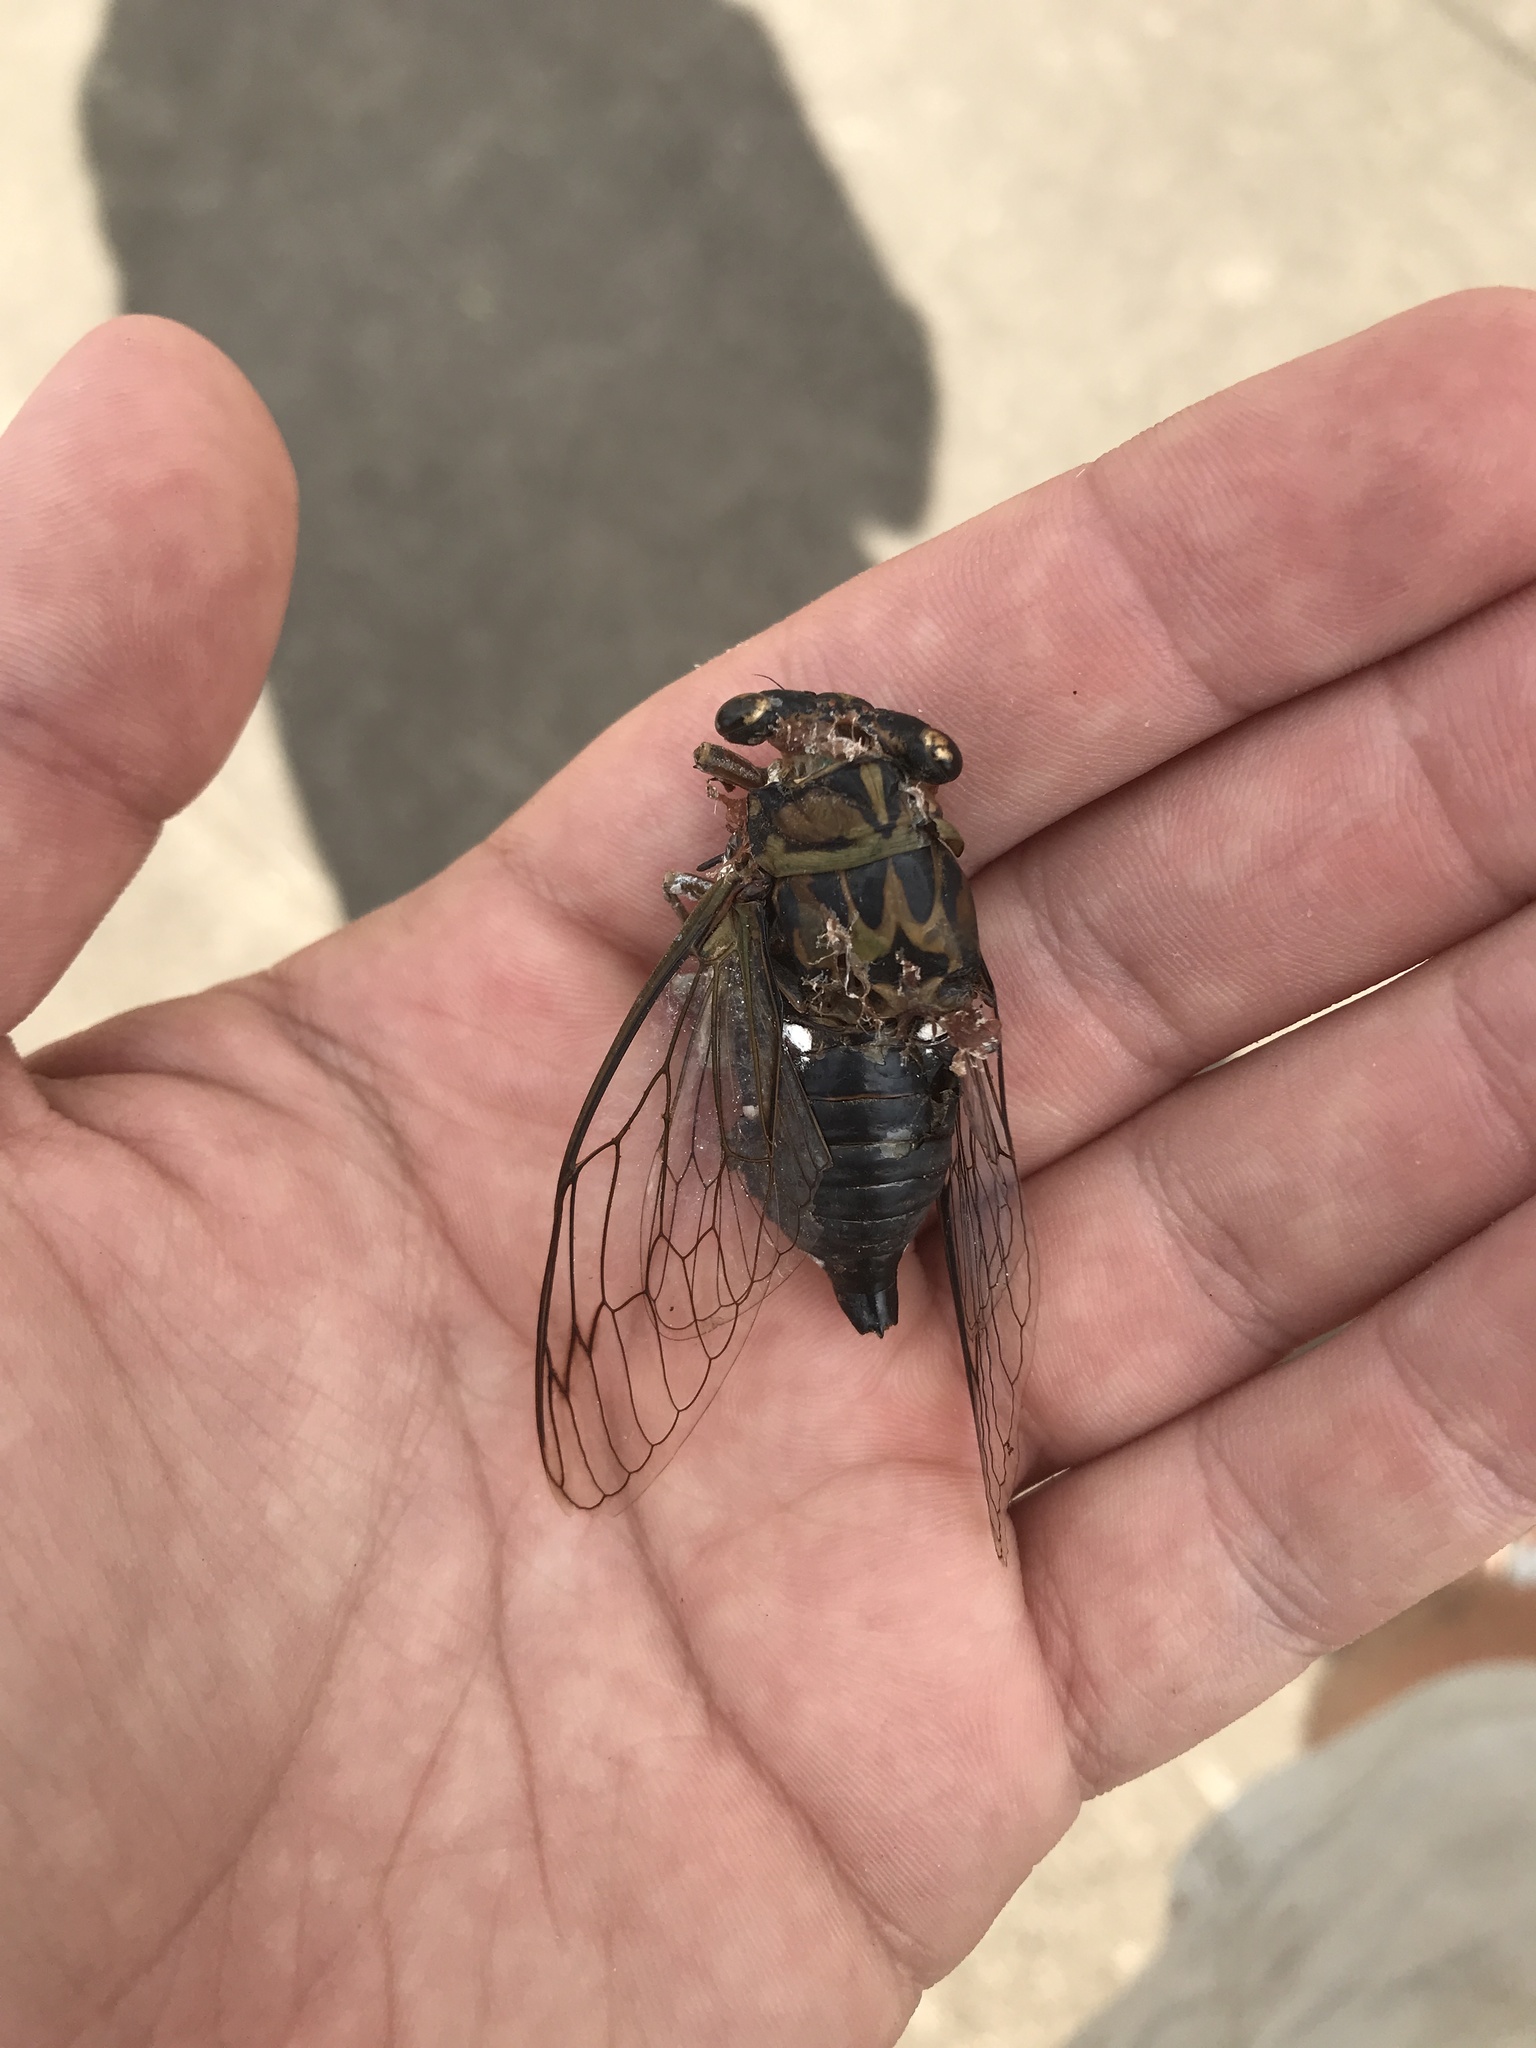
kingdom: Animalia
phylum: Arthropoda
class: Insecta
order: Hemiptera
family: Cicadidae
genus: Neotibicen
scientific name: Neotibicen pruinosus
